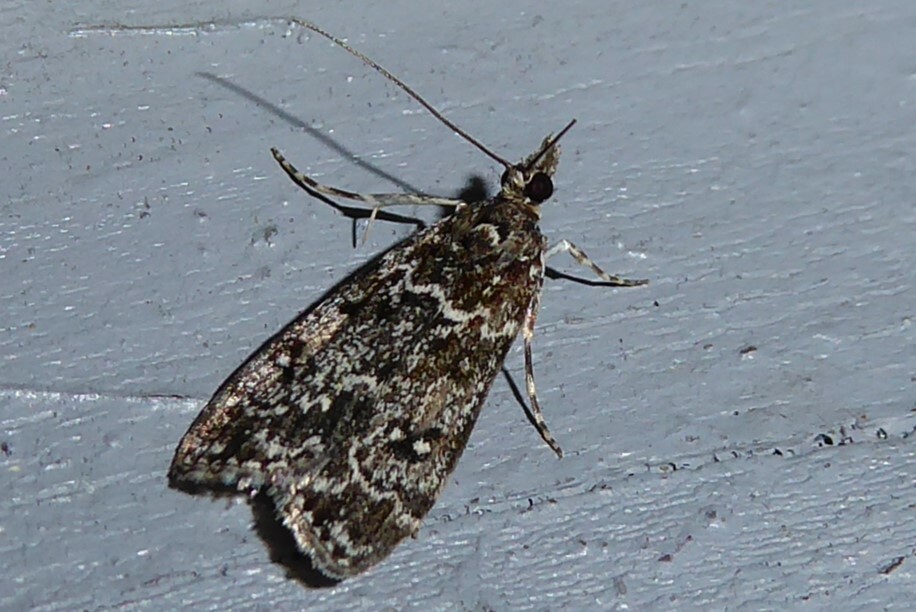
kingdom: Animalia
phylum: Arthropoda
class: Insecta
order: Lepidoptera
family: Crambidae
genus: Eudonia
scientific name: Eudonia philerga
